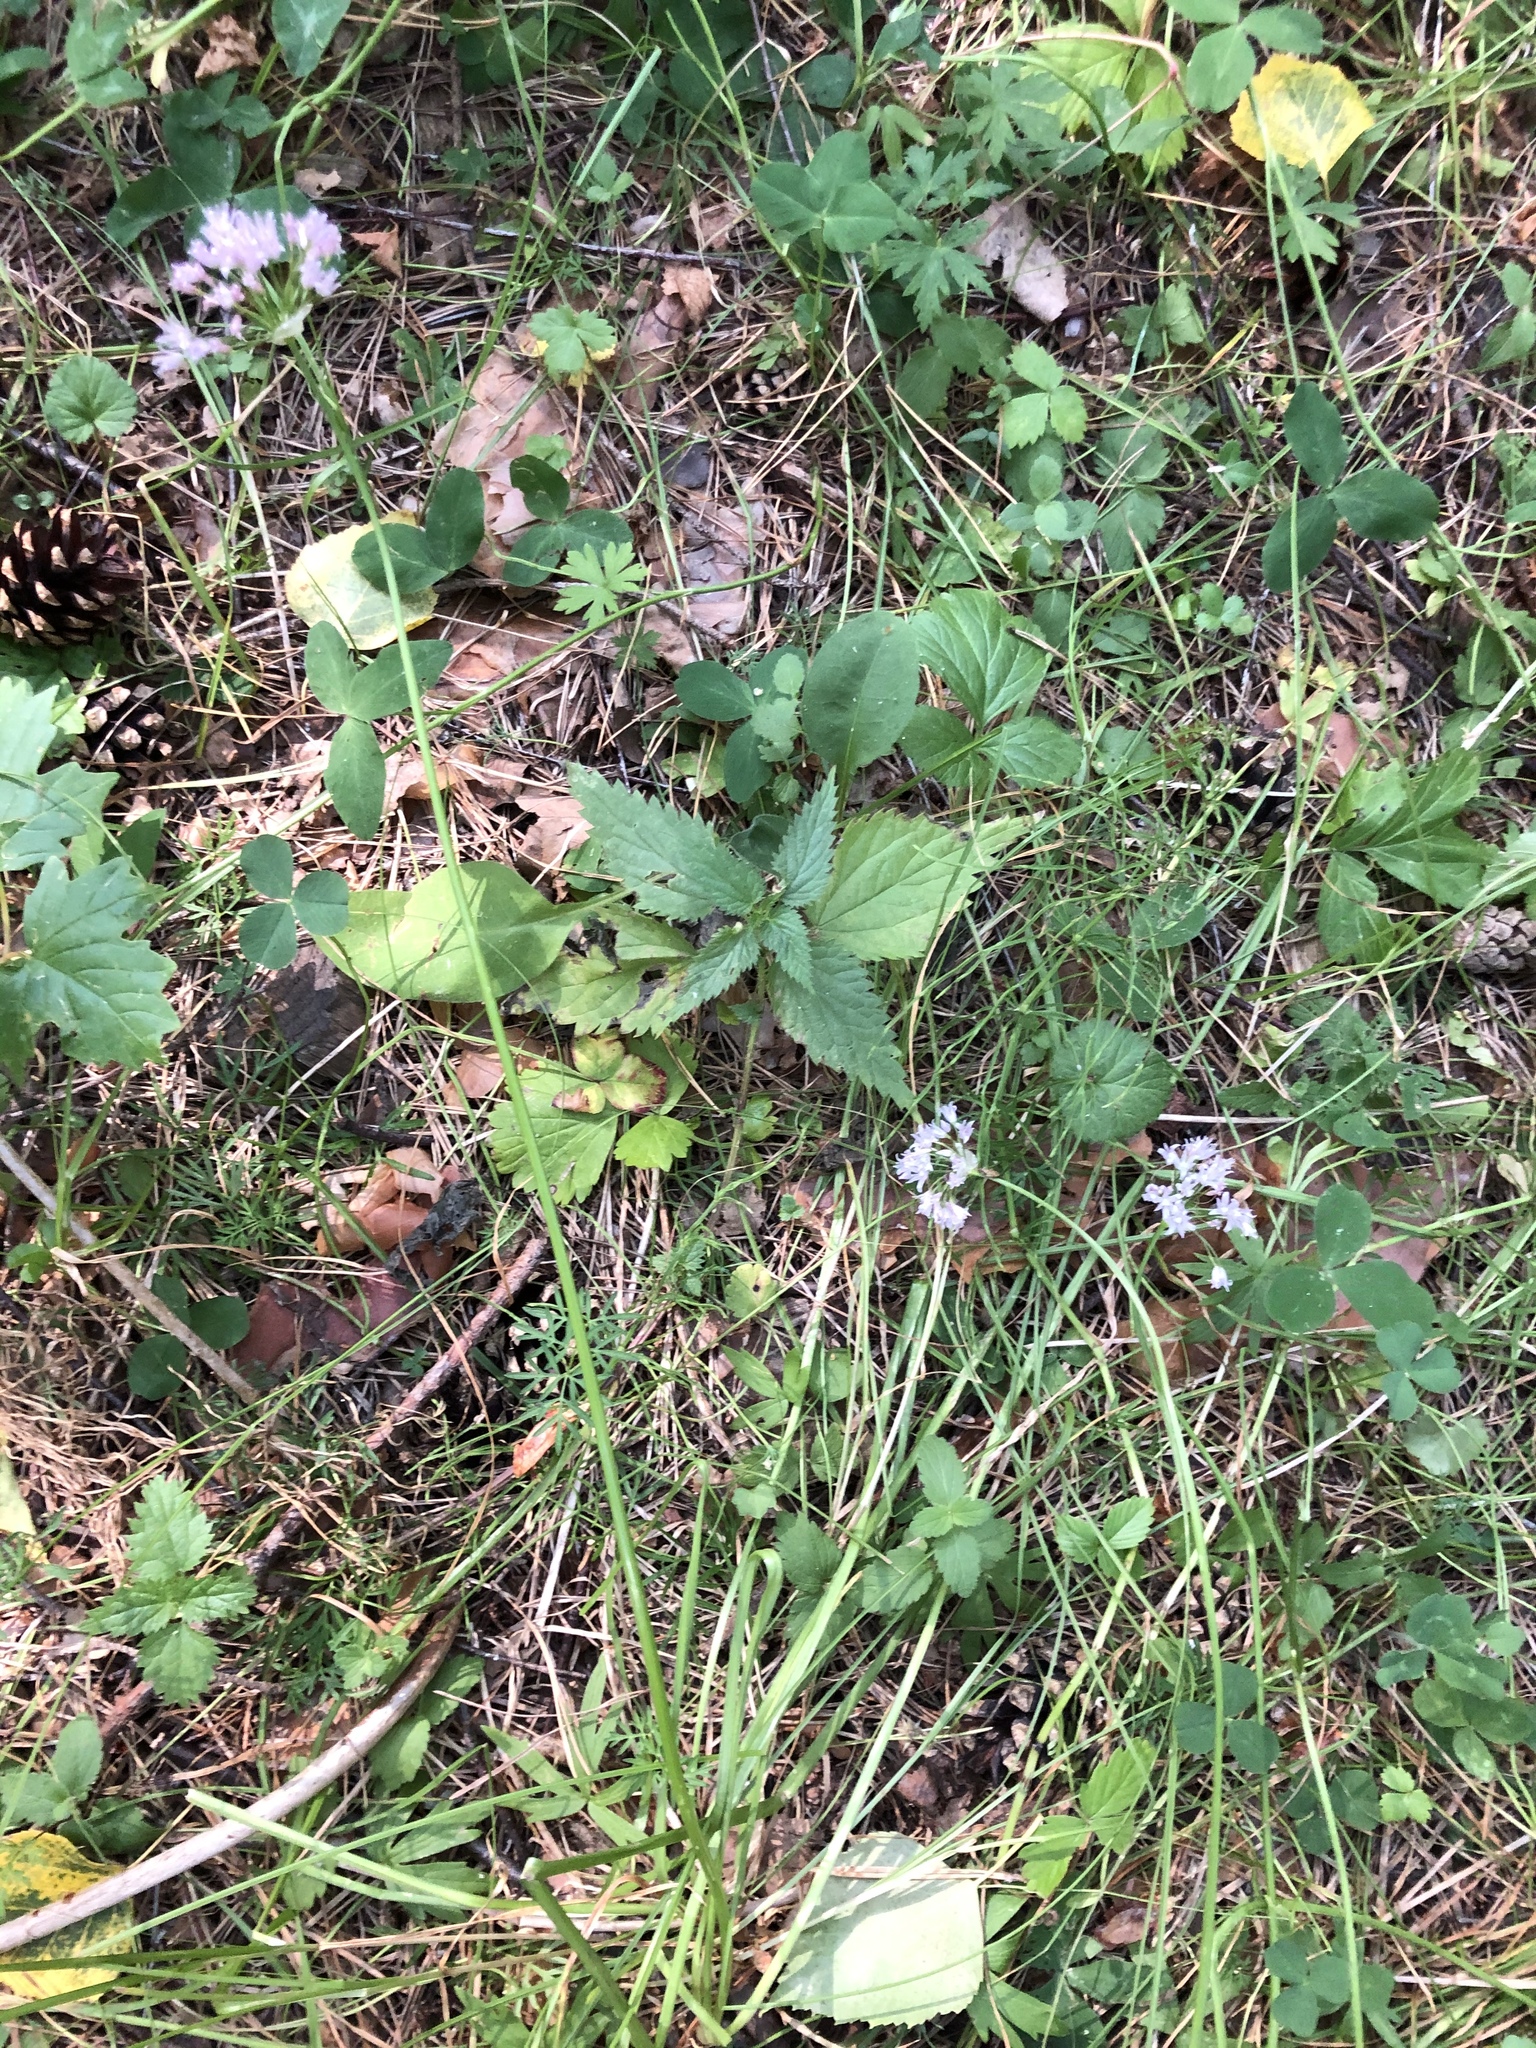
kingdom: Plantae
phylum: Tracheophyta
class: Liliopsida
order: Asparagales
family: Amaryllidaceae
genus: Allium
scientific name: Allium angulosum
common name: Mouse garlic
